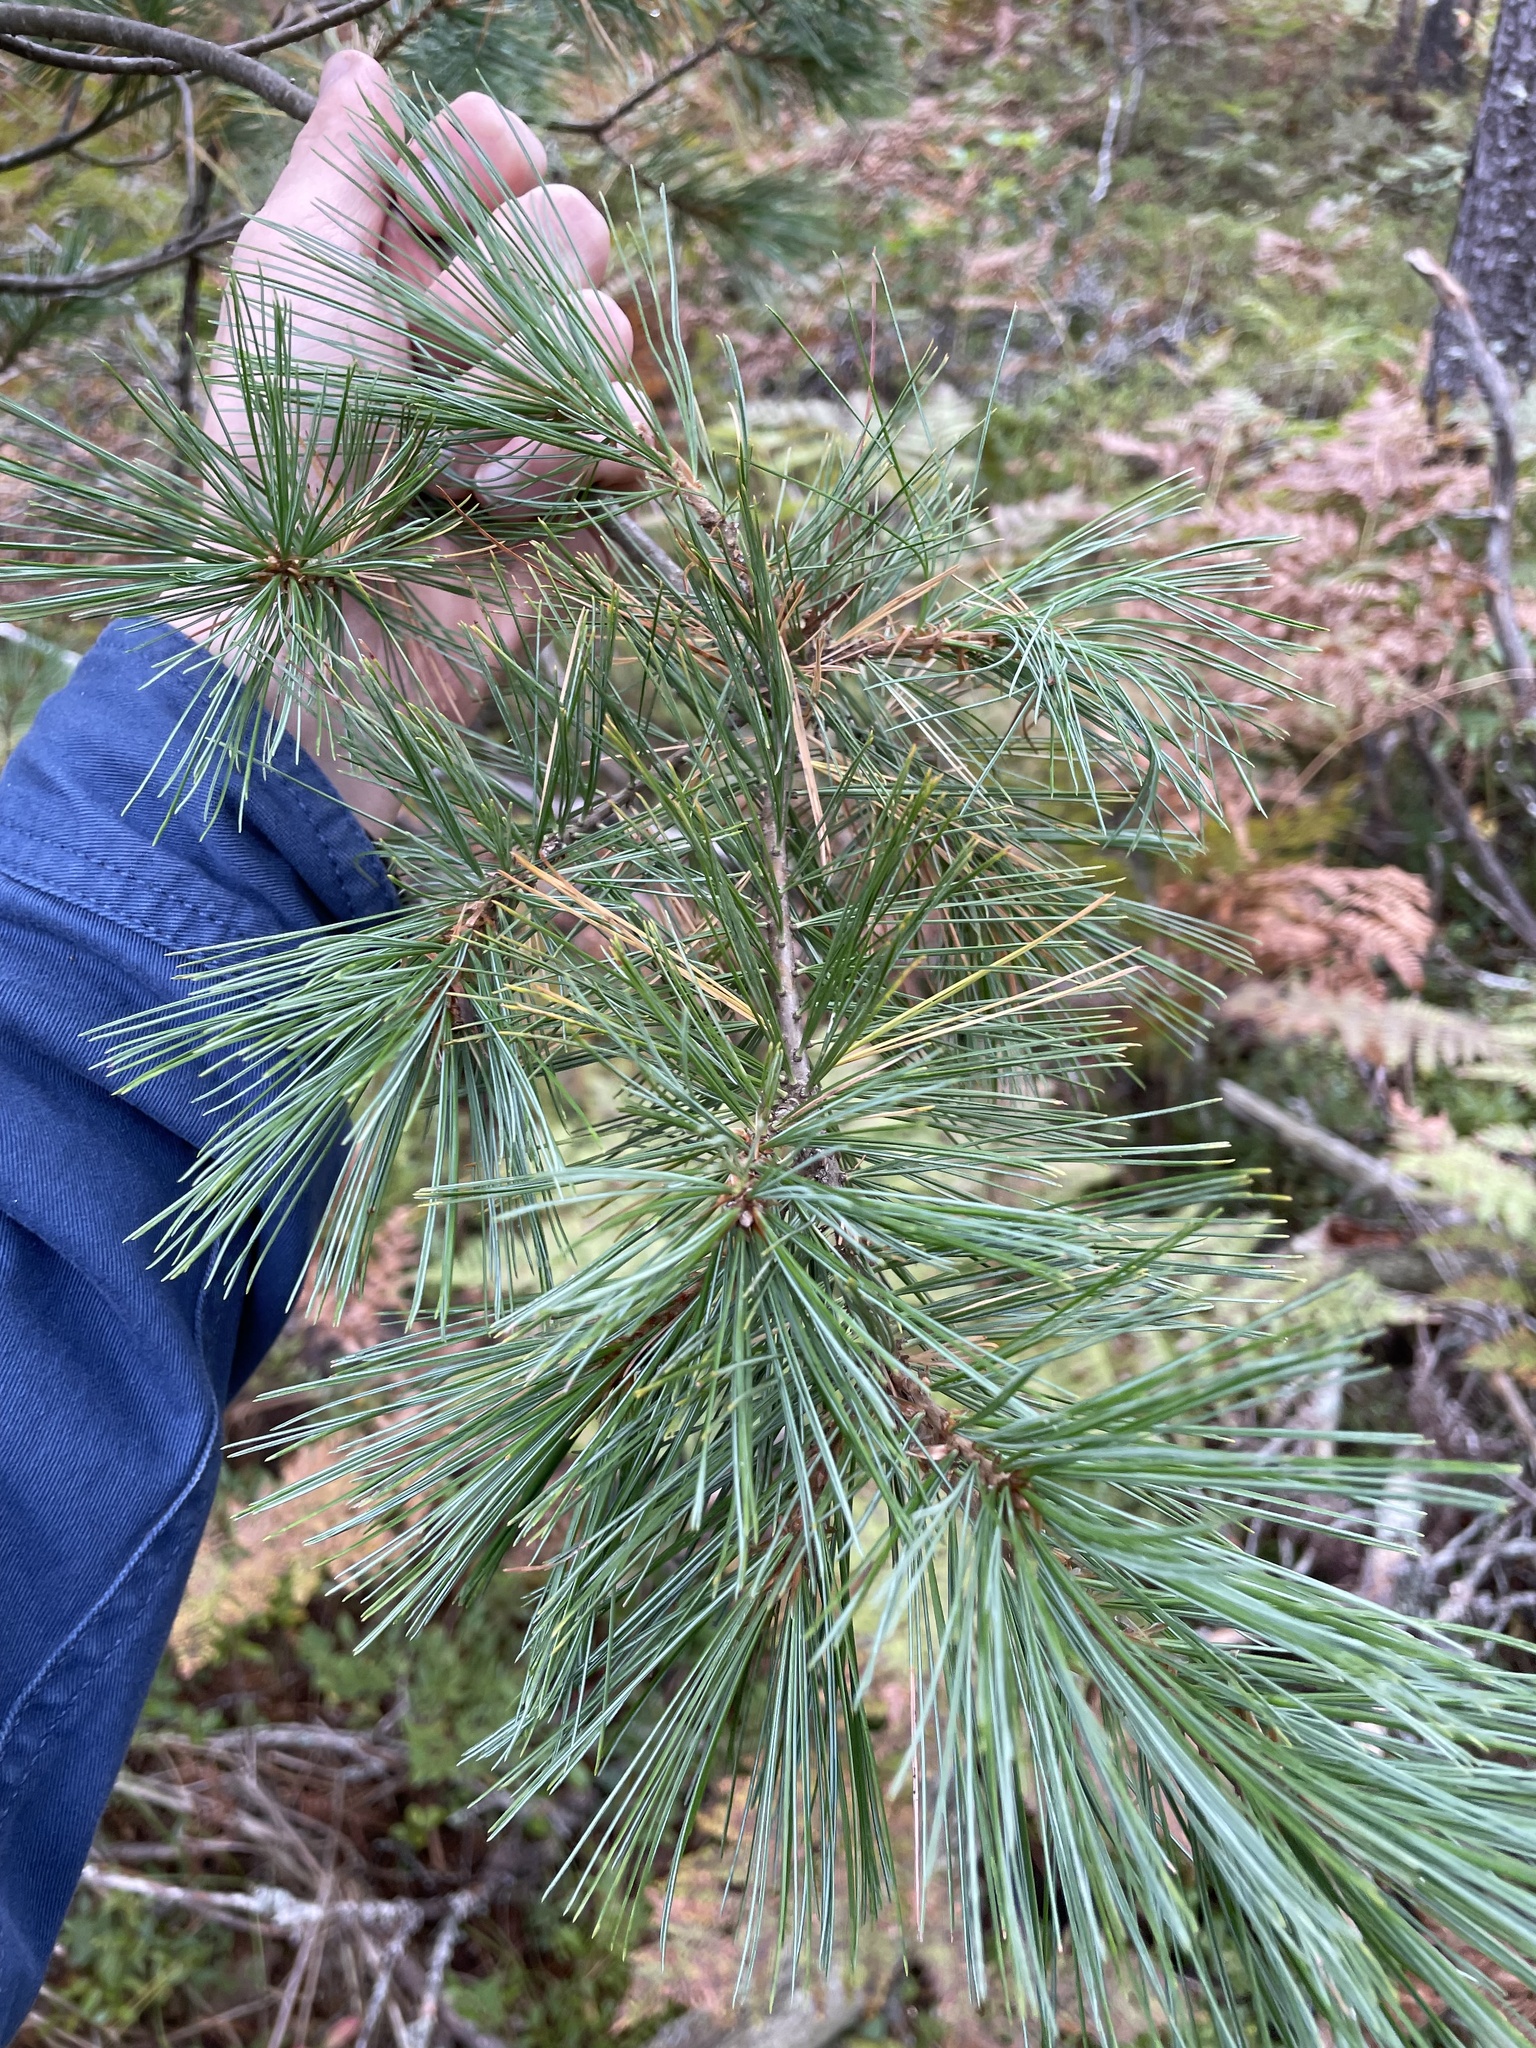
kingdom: Plantae
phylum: Tracheophyta
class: Pinopsida
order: Pinales
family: Pinaceae
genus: Pinus
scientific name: Pinus strobus
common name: Weymouth pine
